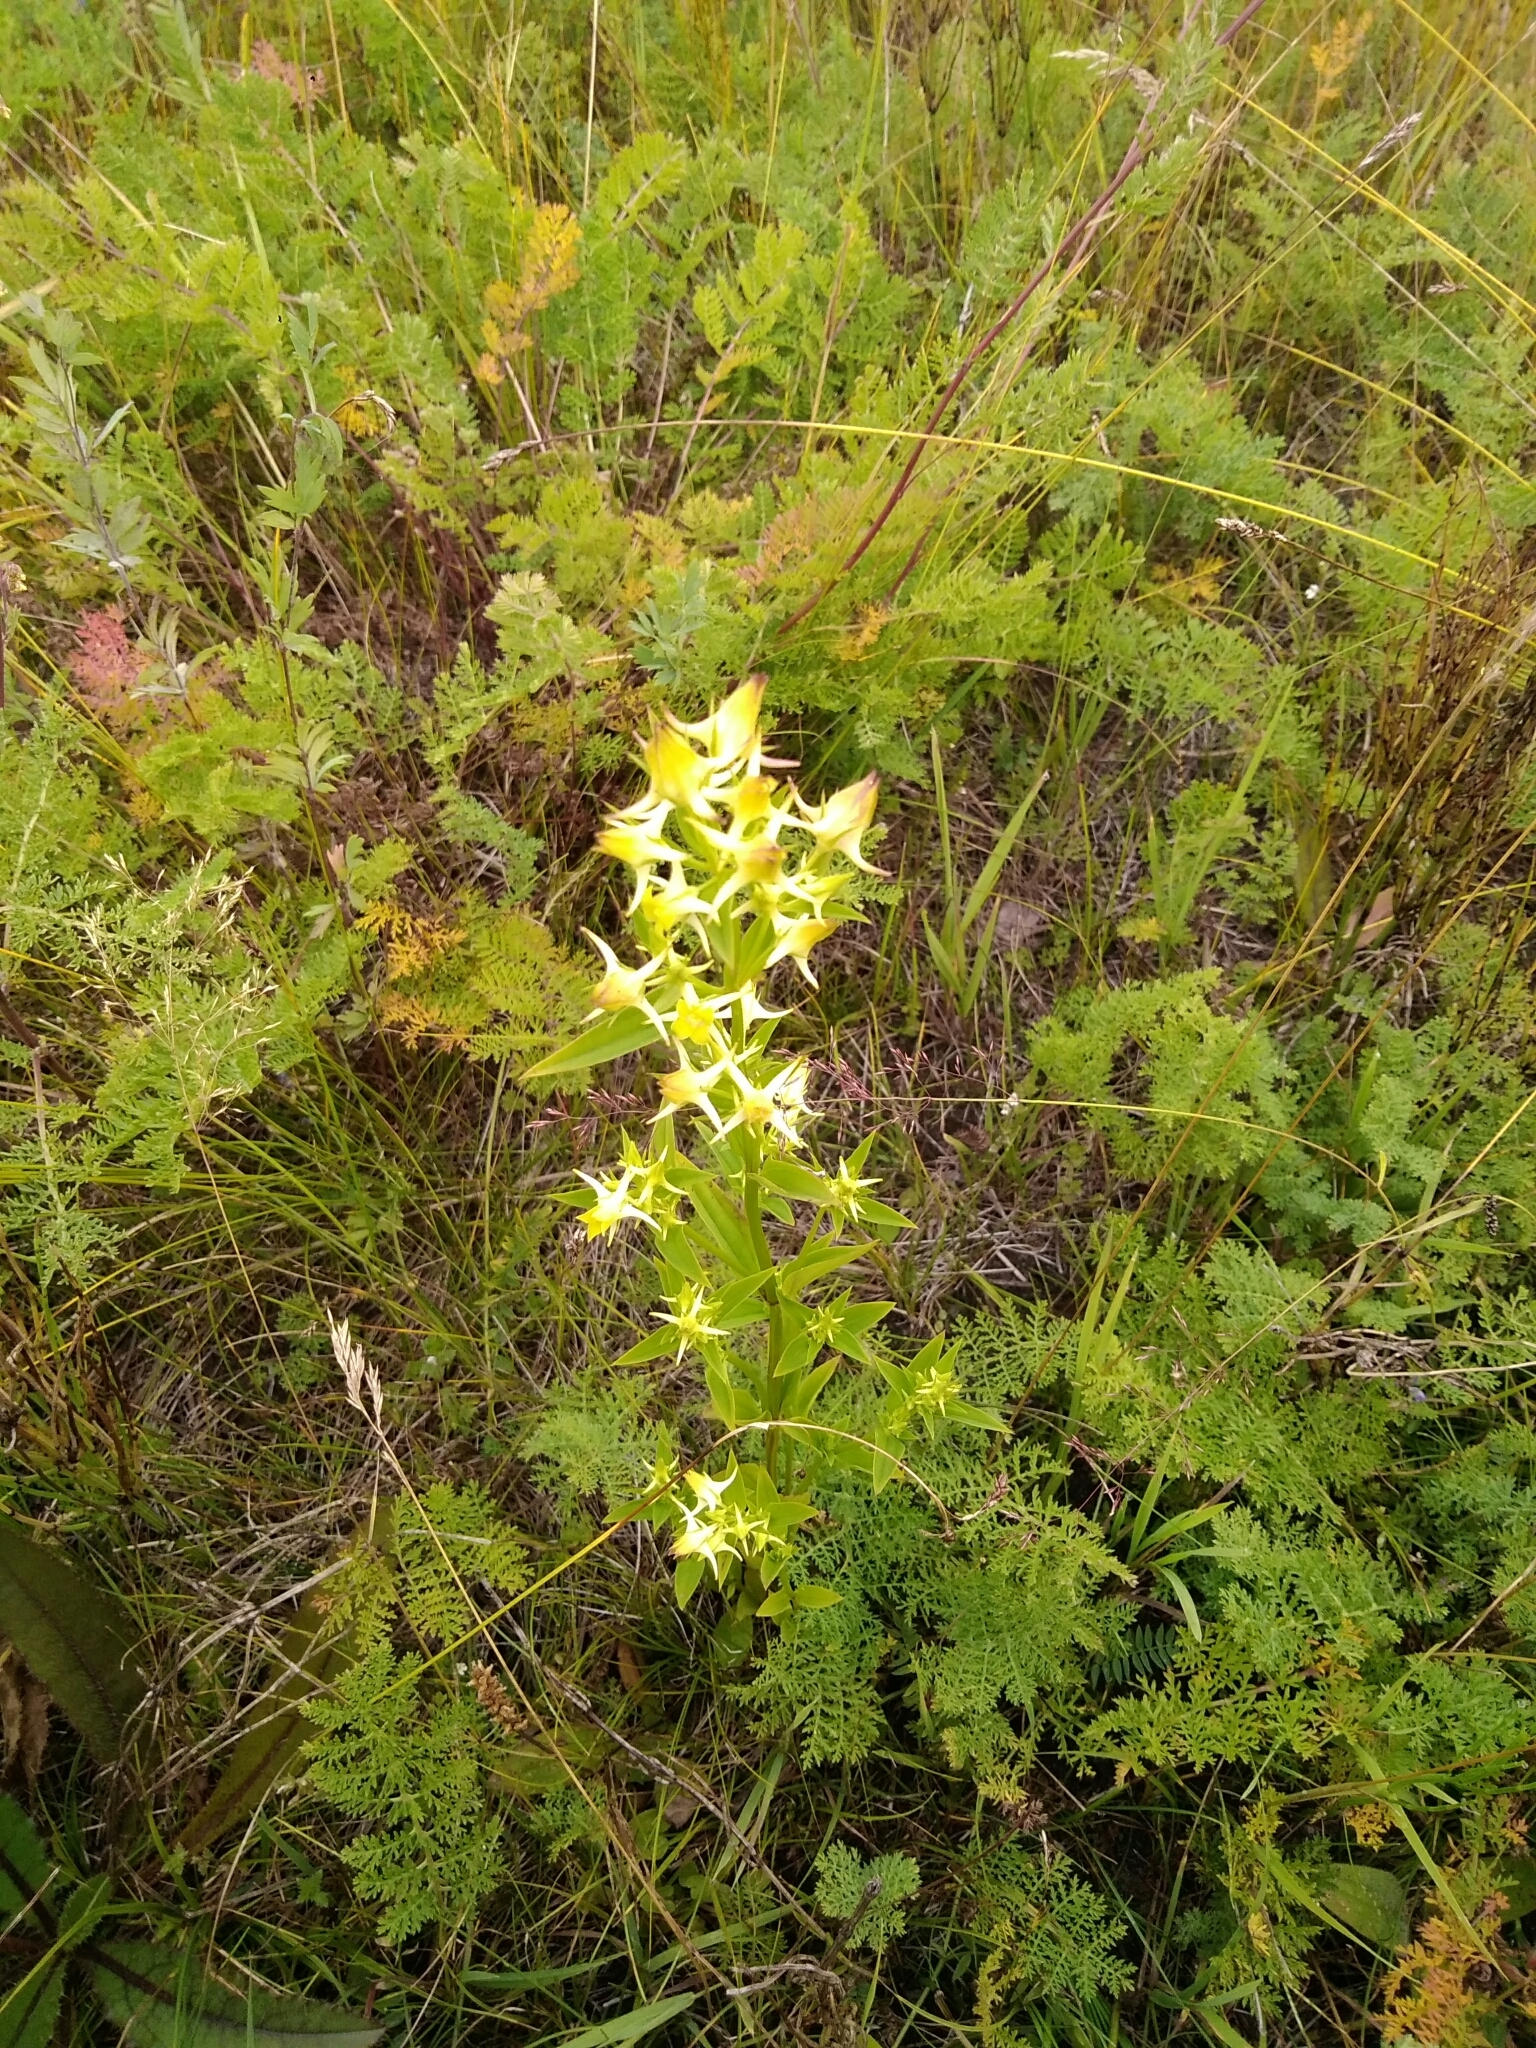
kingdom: Plantae
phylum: Tracheophyta
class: Magnoliopsida
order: Gentianales
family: Gentianaceae
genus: Halenia
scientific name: Halenia corniculata
